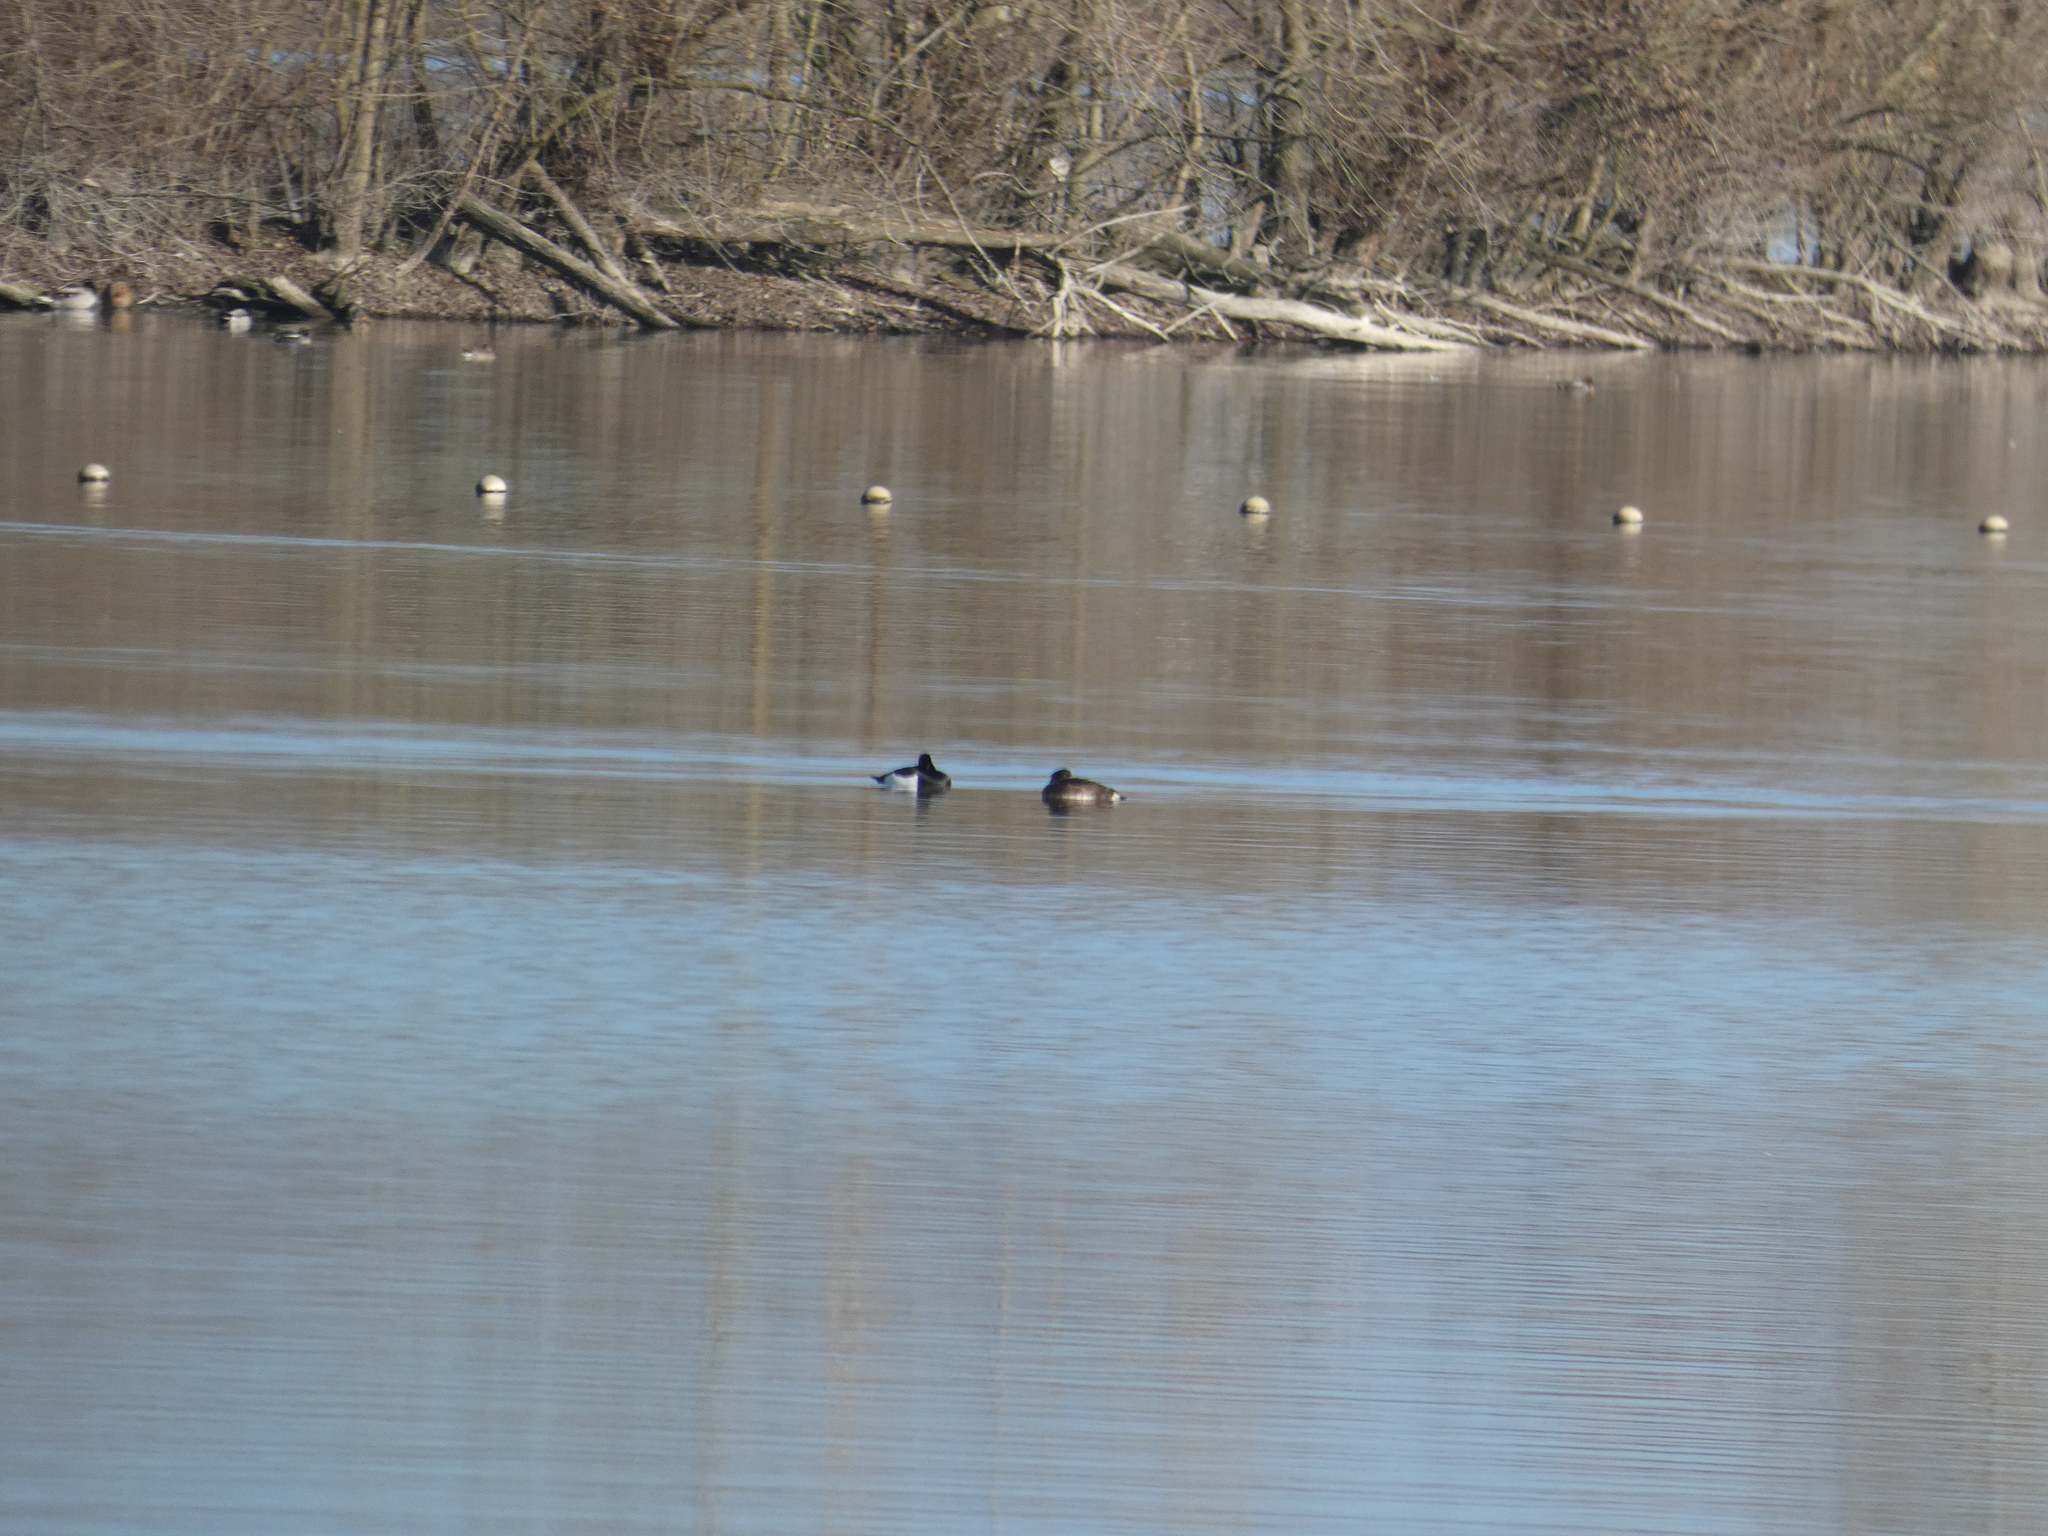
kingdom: Animalia
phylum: Chordata
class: Aves
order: Anseriformes
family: Anatidae
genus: Aythya
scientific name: Aythya fuligula
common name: Tufted duck
